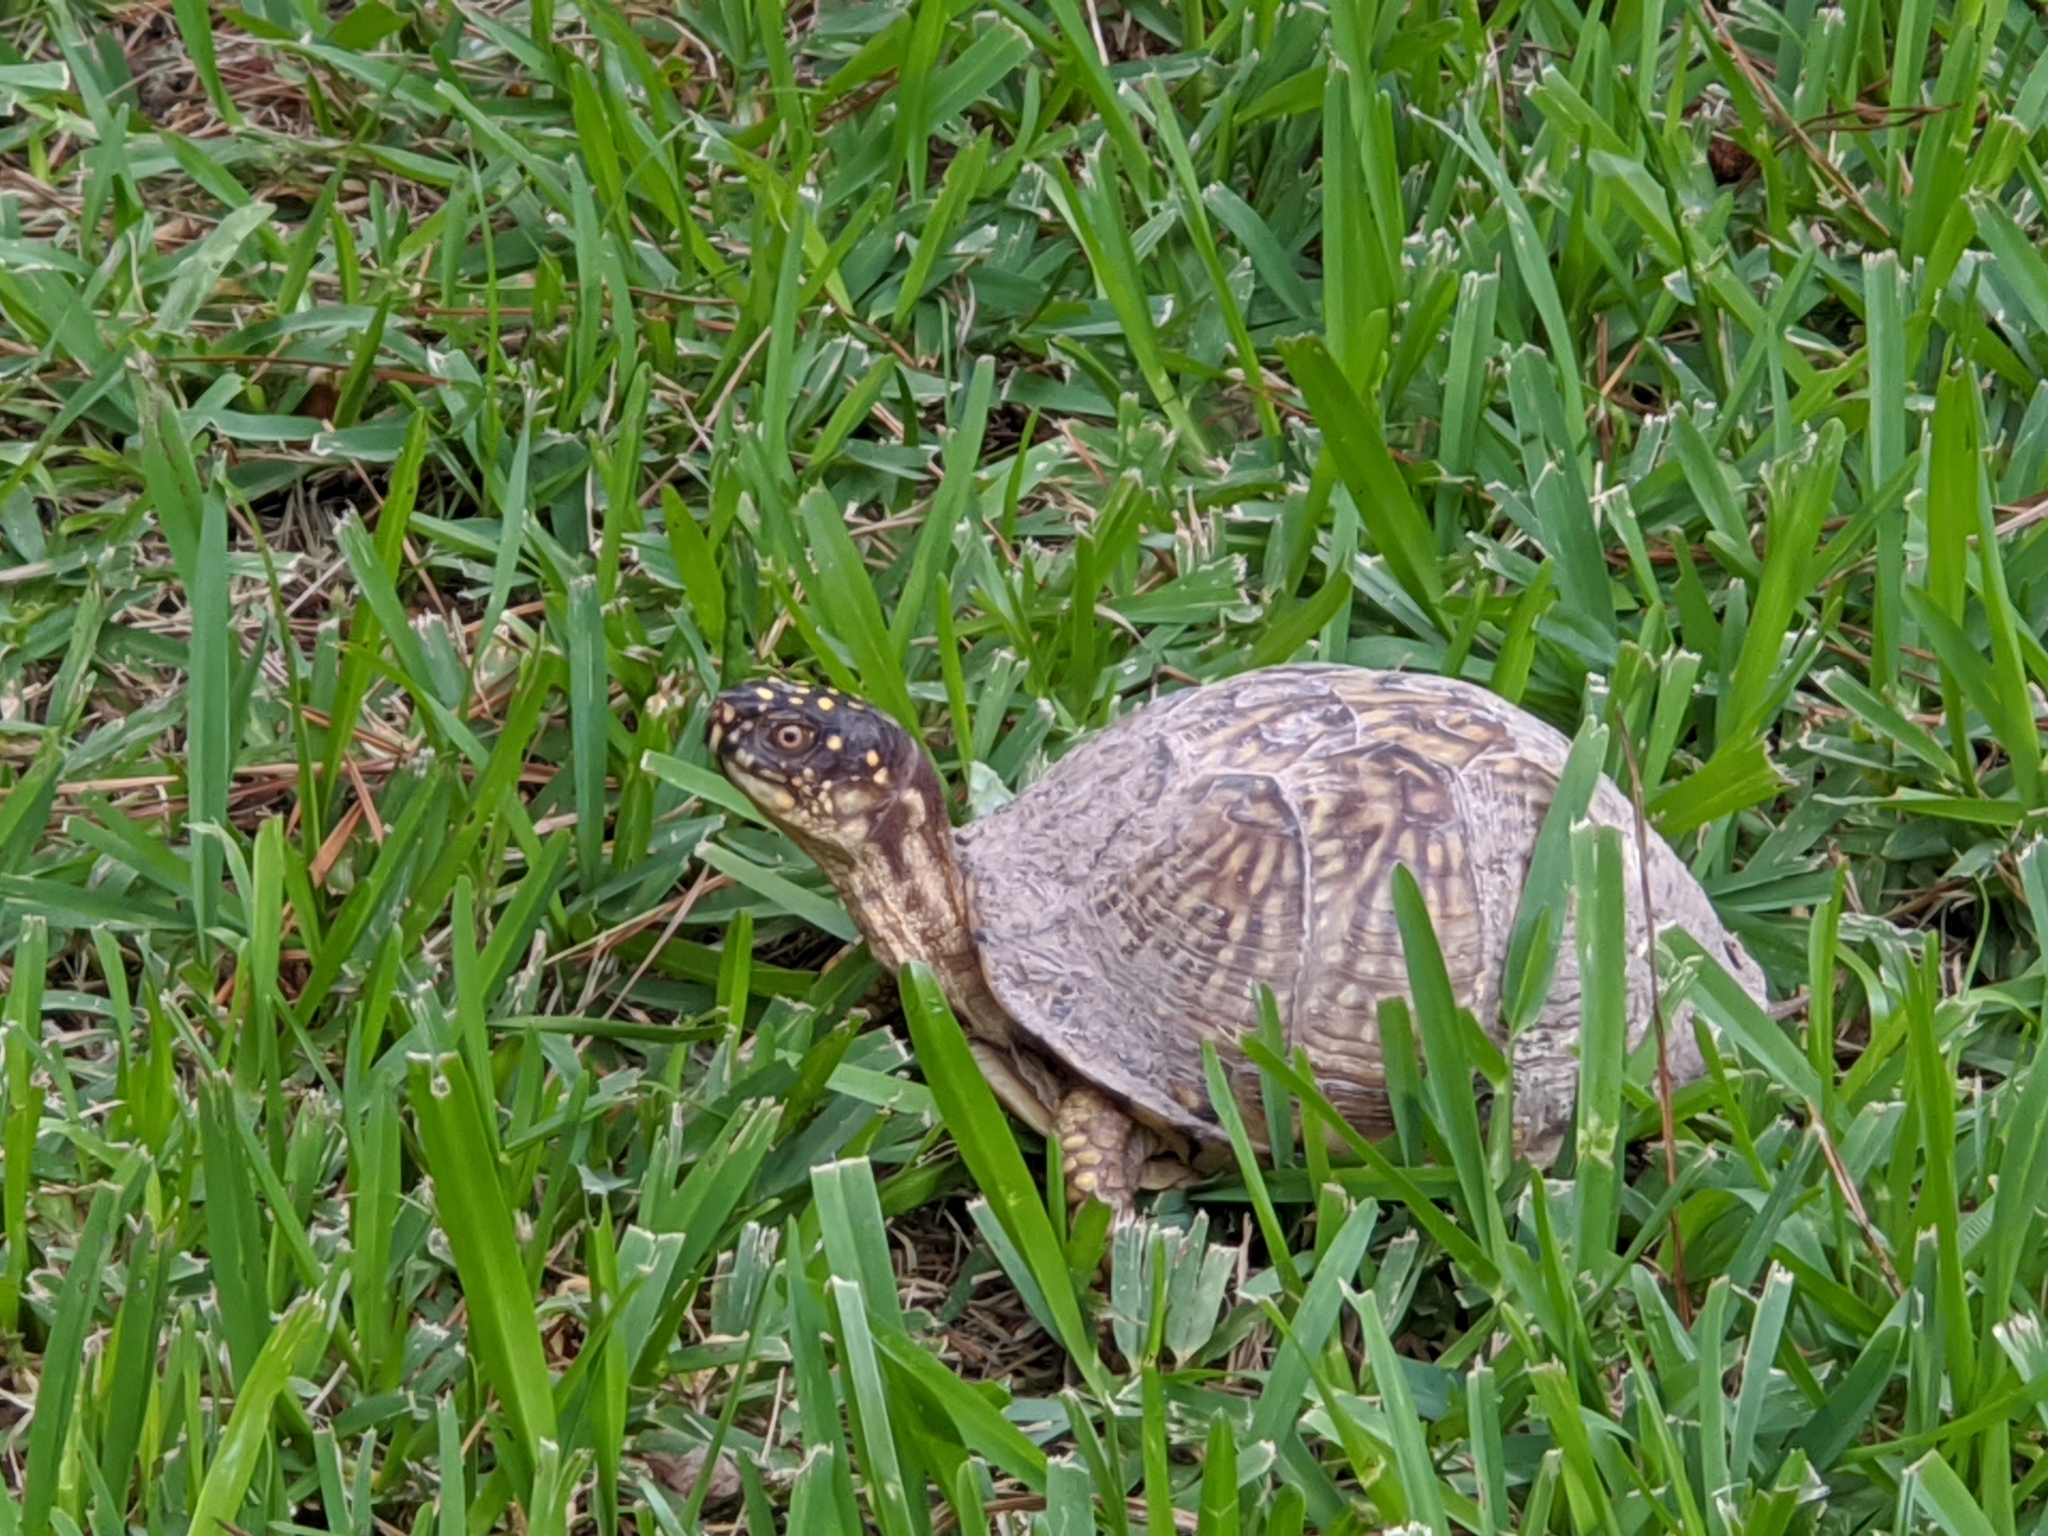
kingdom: Animalia
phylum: Chordata
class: Testudines
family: Emydidae
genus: Terrapene
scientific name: Terrapene carolina
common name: Common box turtle
